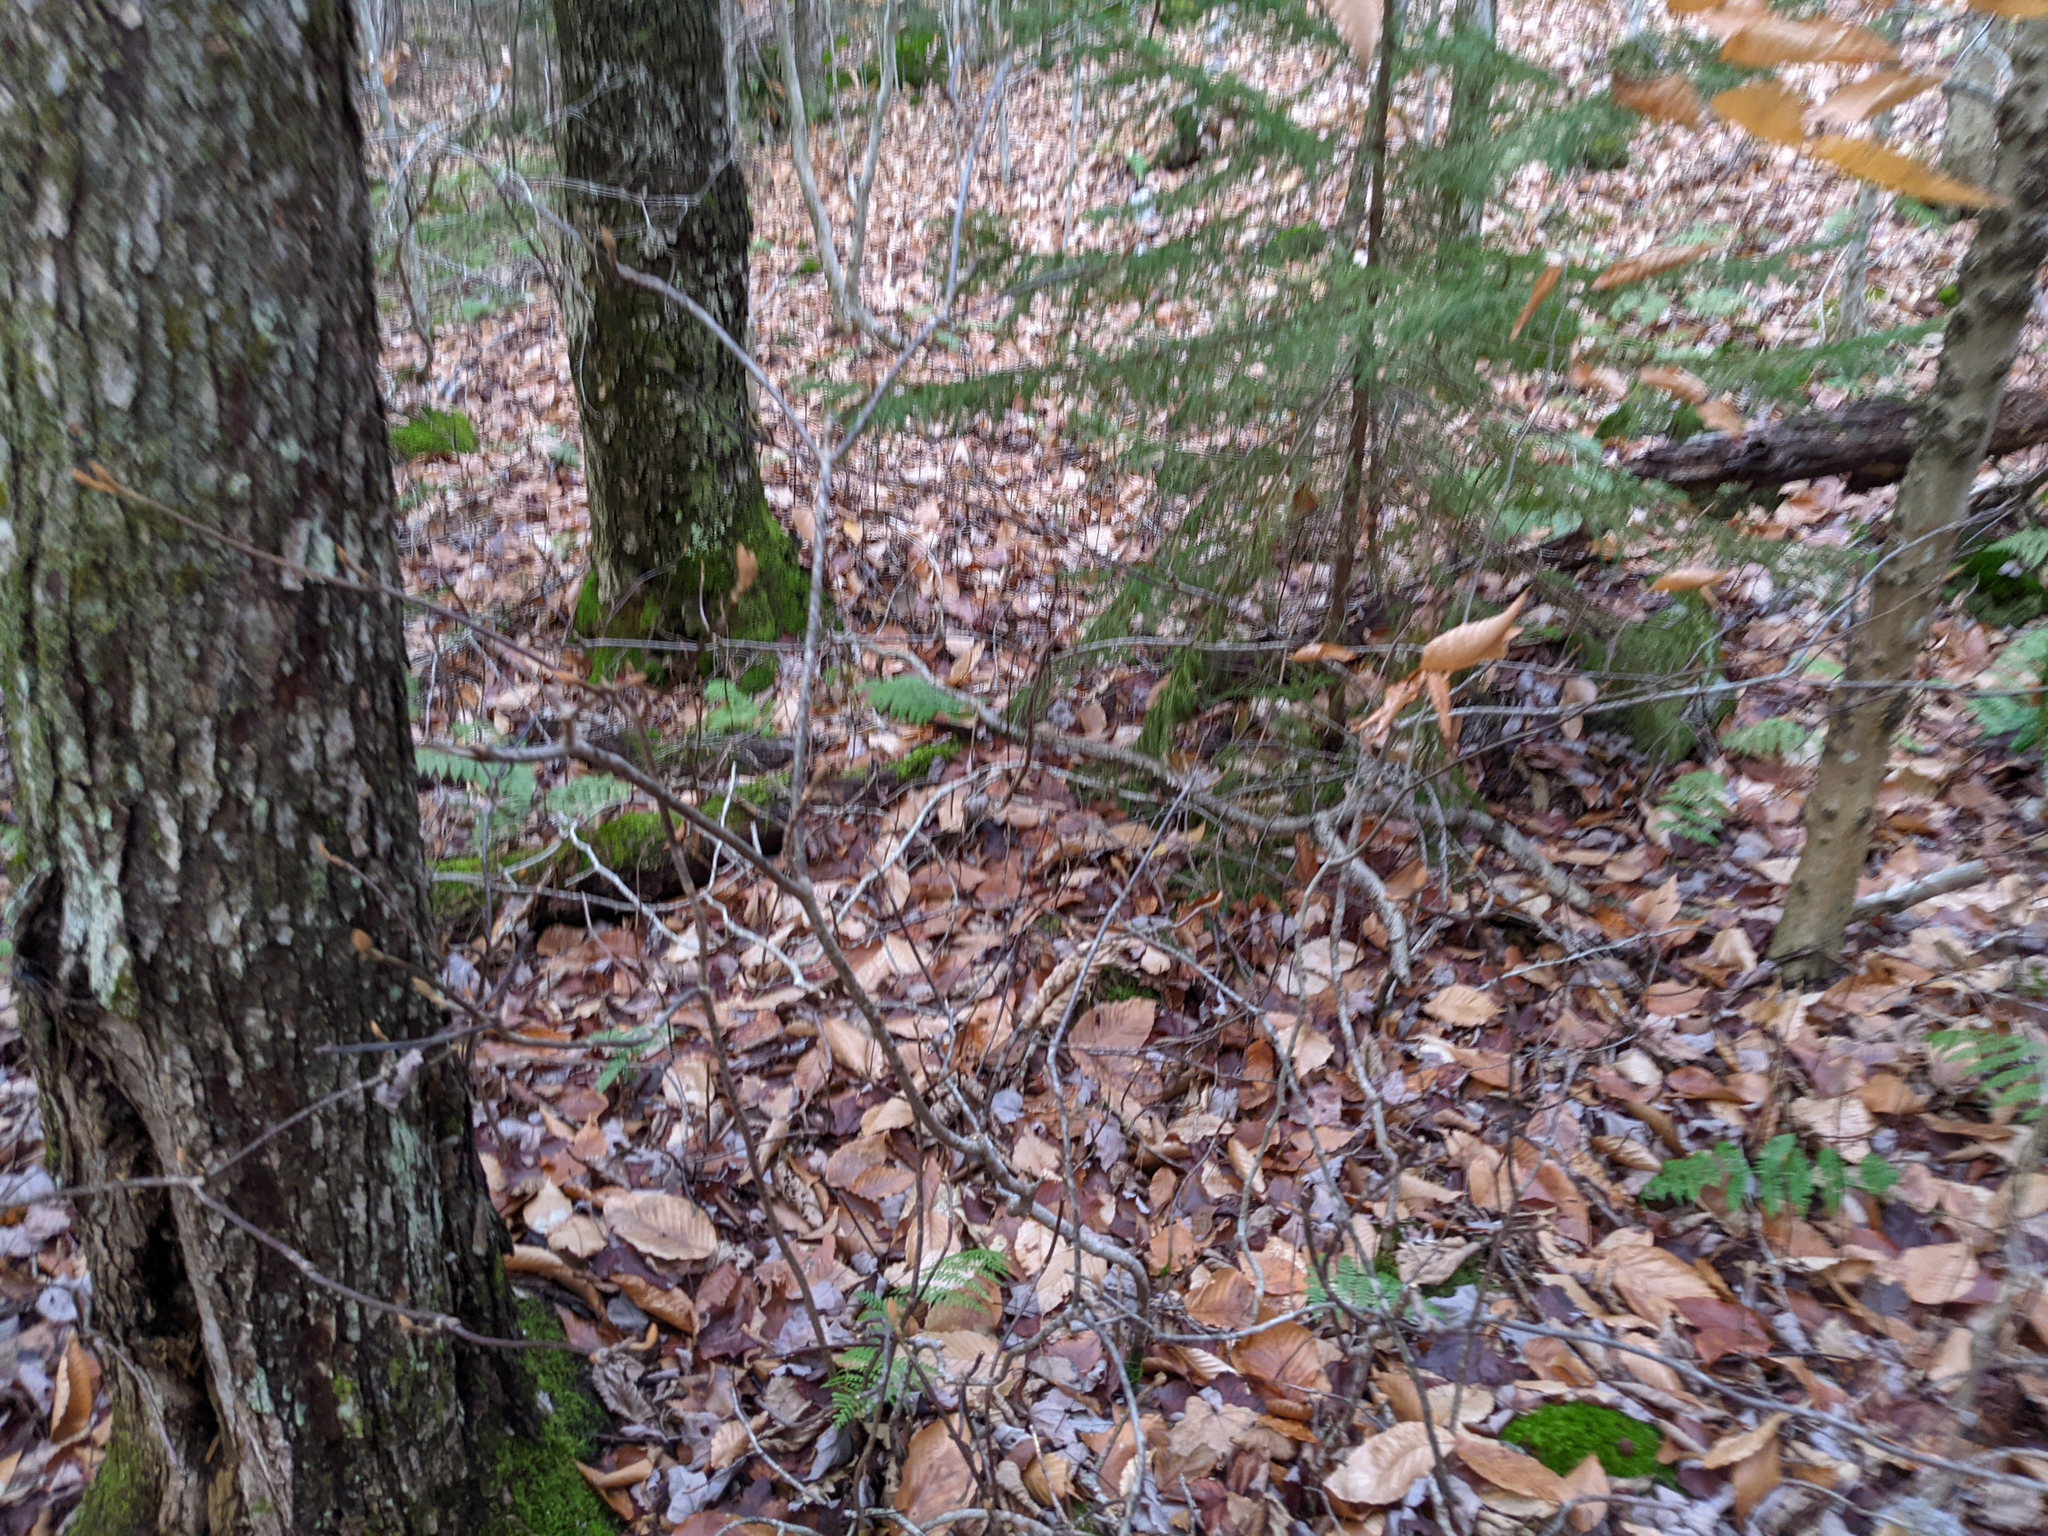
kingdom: Plantae
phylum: Tracheophyta
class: Magnoliopsida
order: Dipsacales
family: Viburnaceae
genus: Viburnum
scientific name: Viburnum lantanoides
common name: Hobblebush
